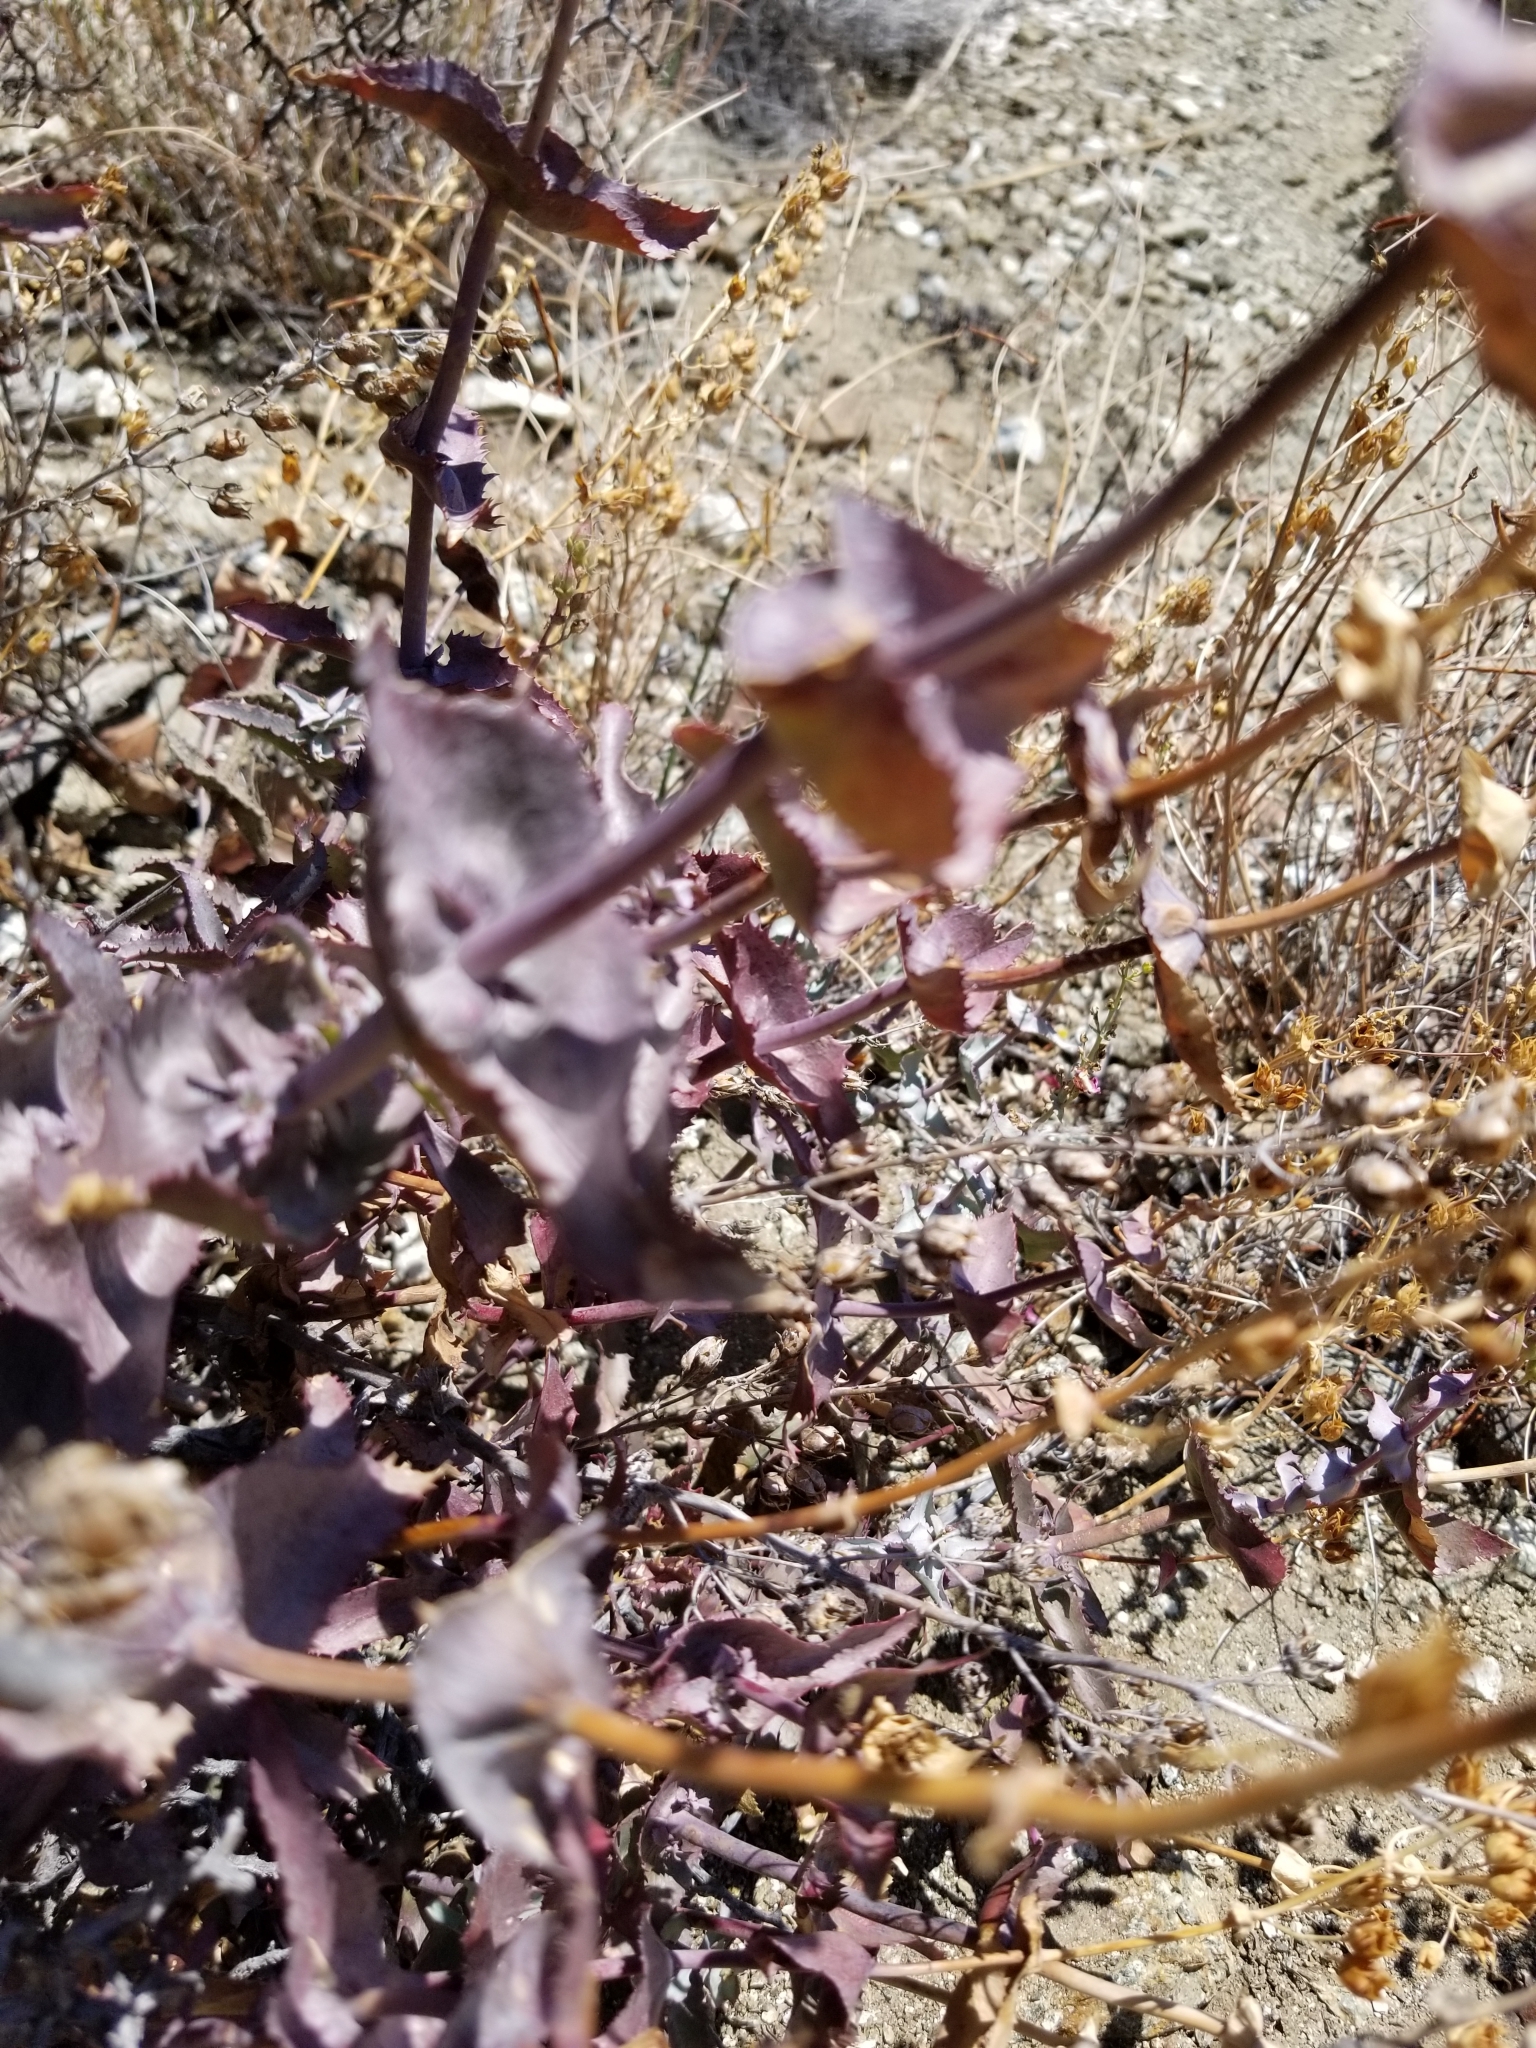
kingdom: Plantae
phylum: Tracheophyta
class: Magnoliopsida
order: Lamiales
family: Plantaginaceae
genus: Penstemon
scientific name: Penstemon clevelandii
